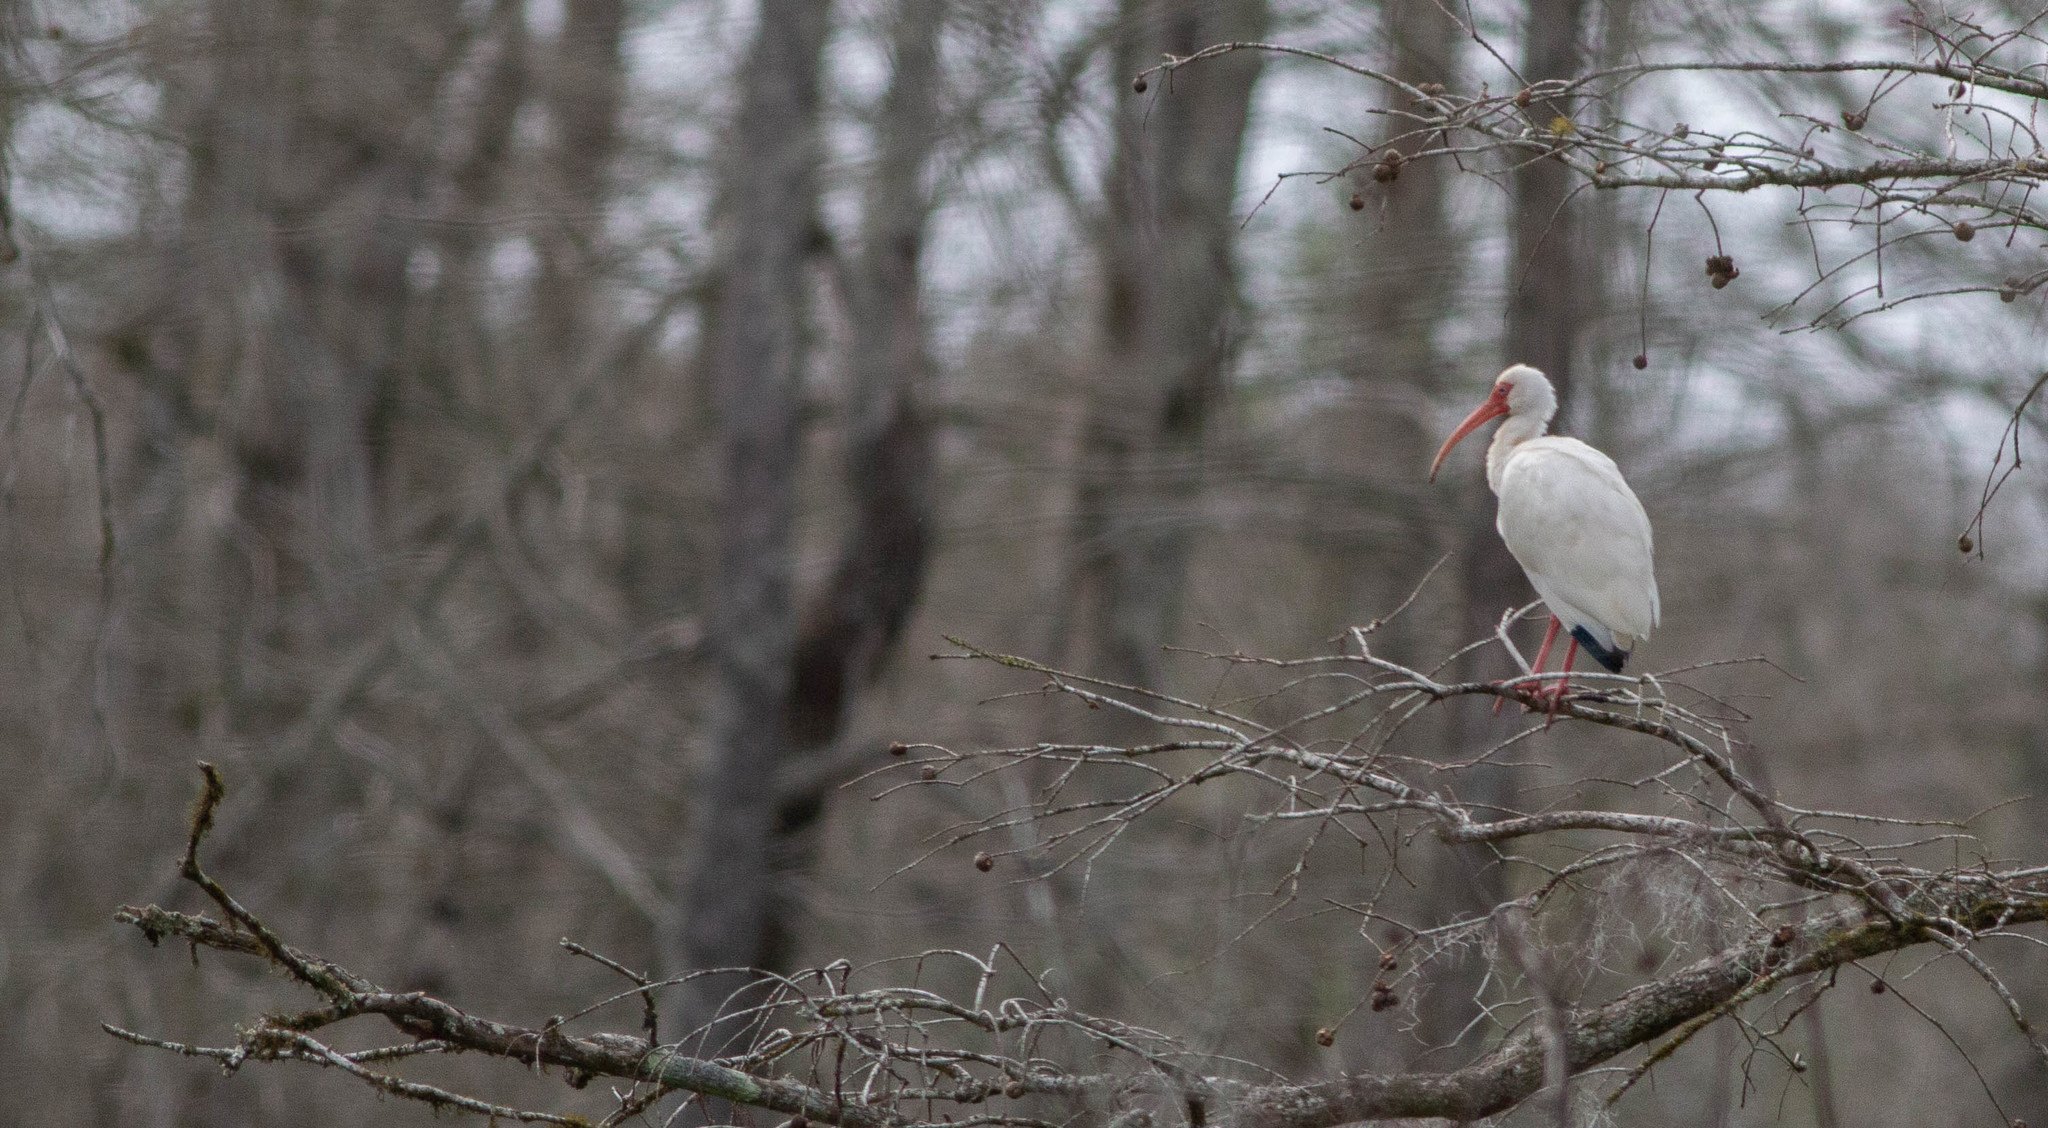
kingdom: Animalia
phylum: Chordata
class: Aves
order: Pelecaniformes
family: Threskiornithidae
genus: Eudocimus
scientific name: Eudocimus albus
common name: White ibis
